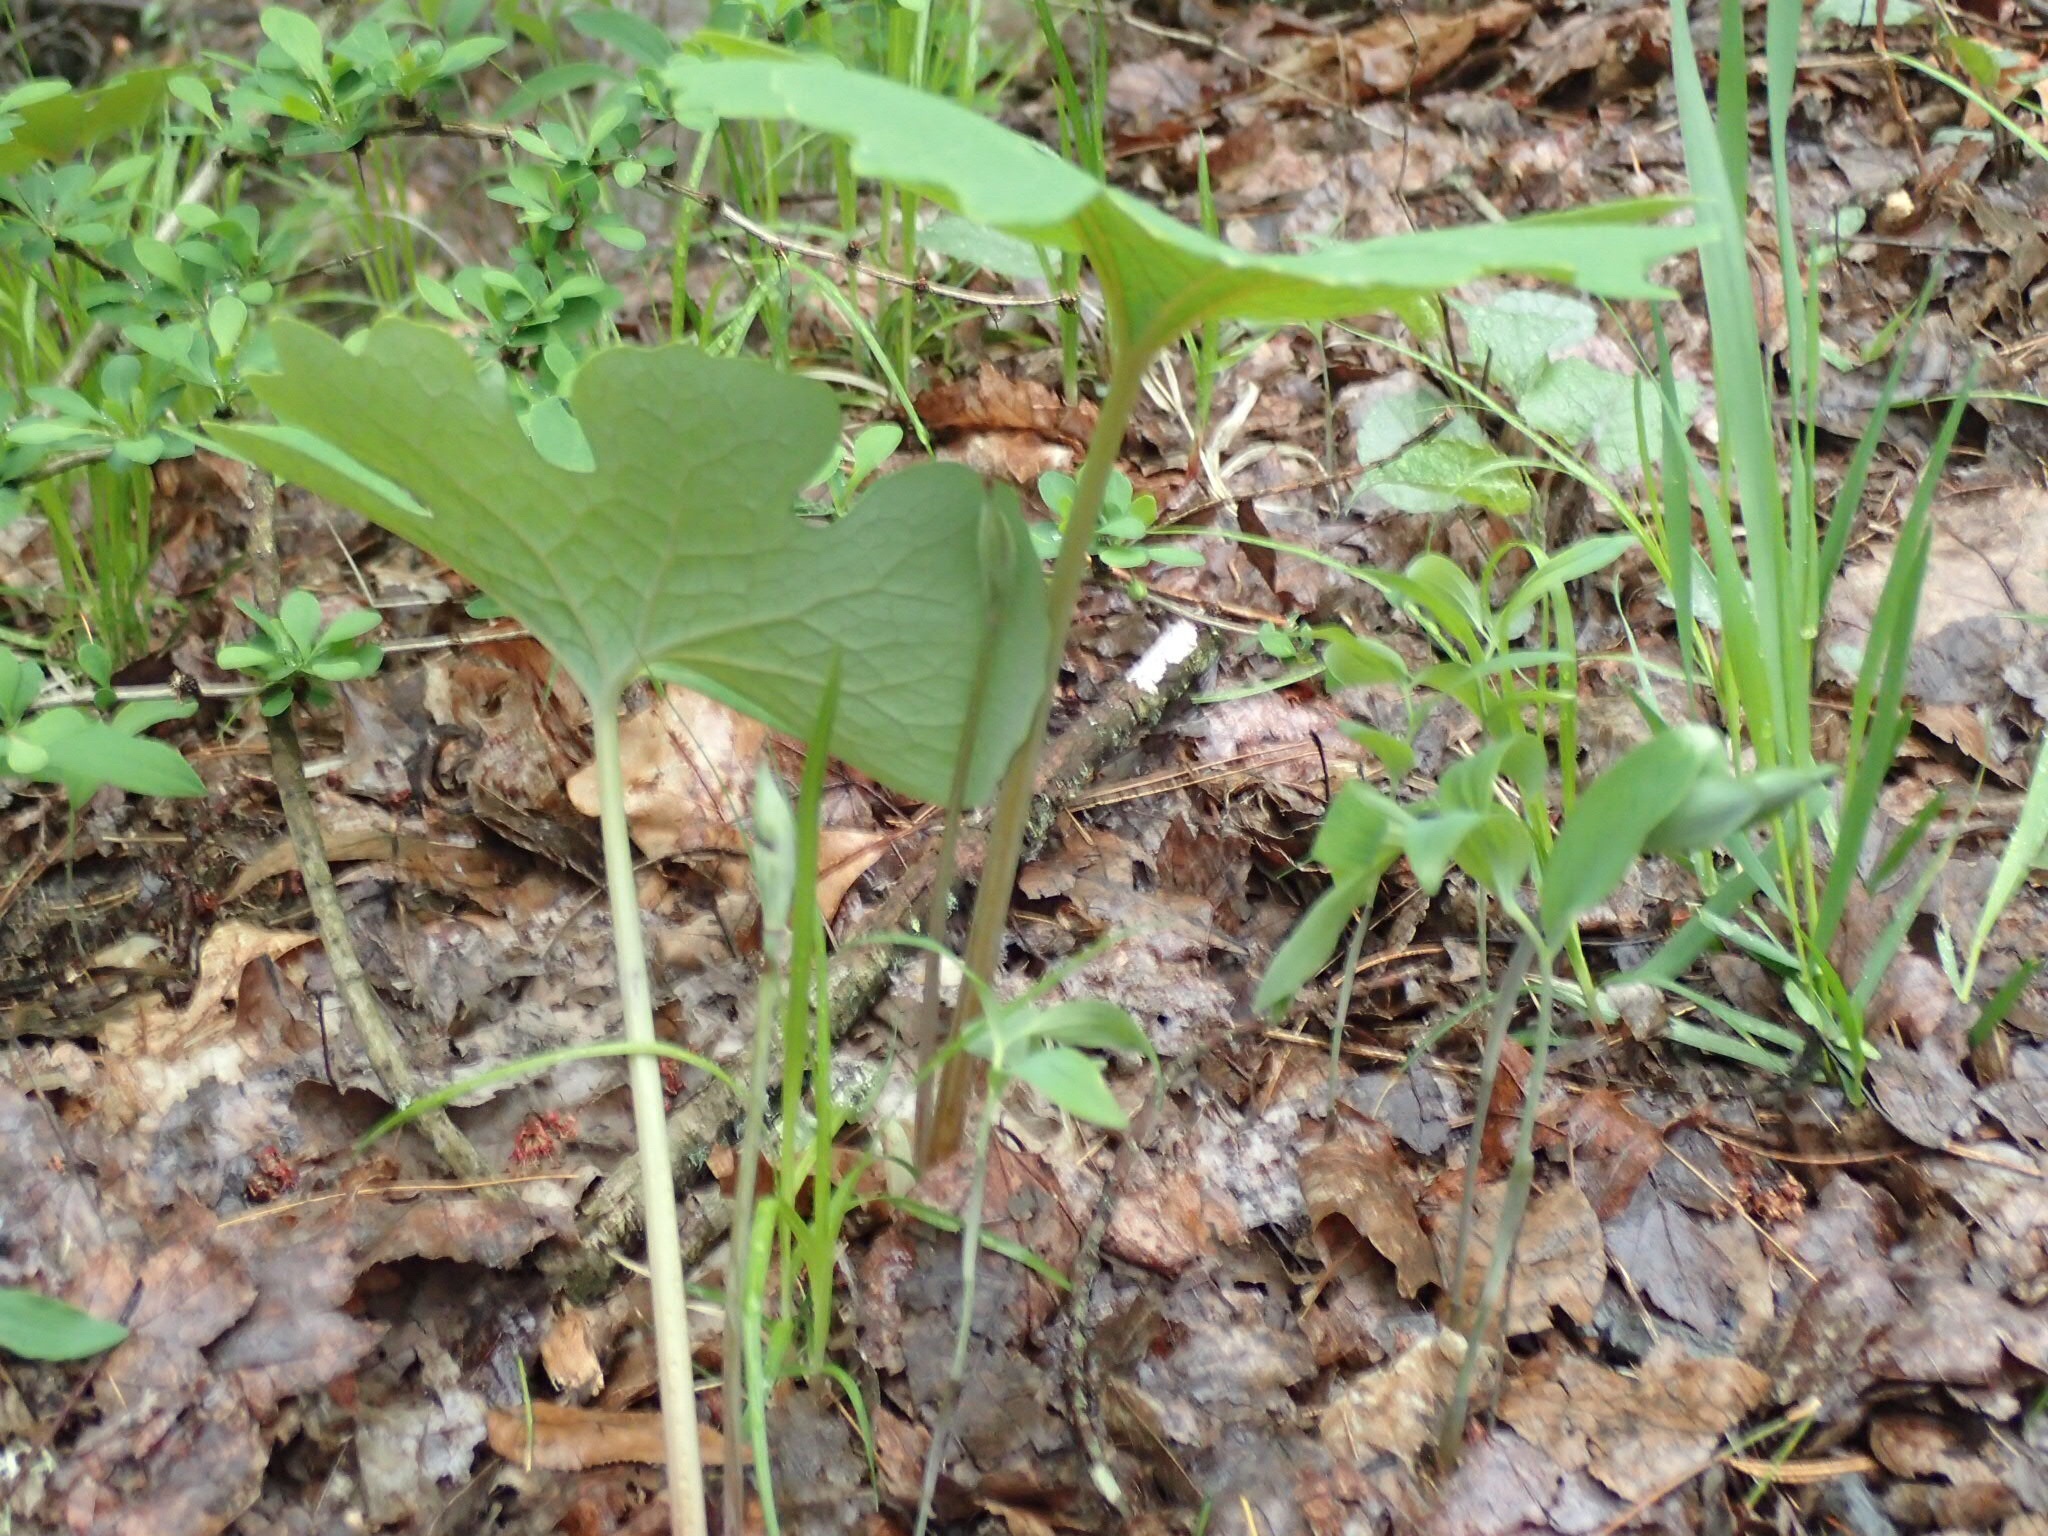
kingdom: Plantae
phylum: Tracheophyta
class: Magnoliopsida
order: Ranunculales
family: Papaveraceae
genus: Sanguinaria
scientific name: Sanguinaria canadensis
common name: Bloodroot
